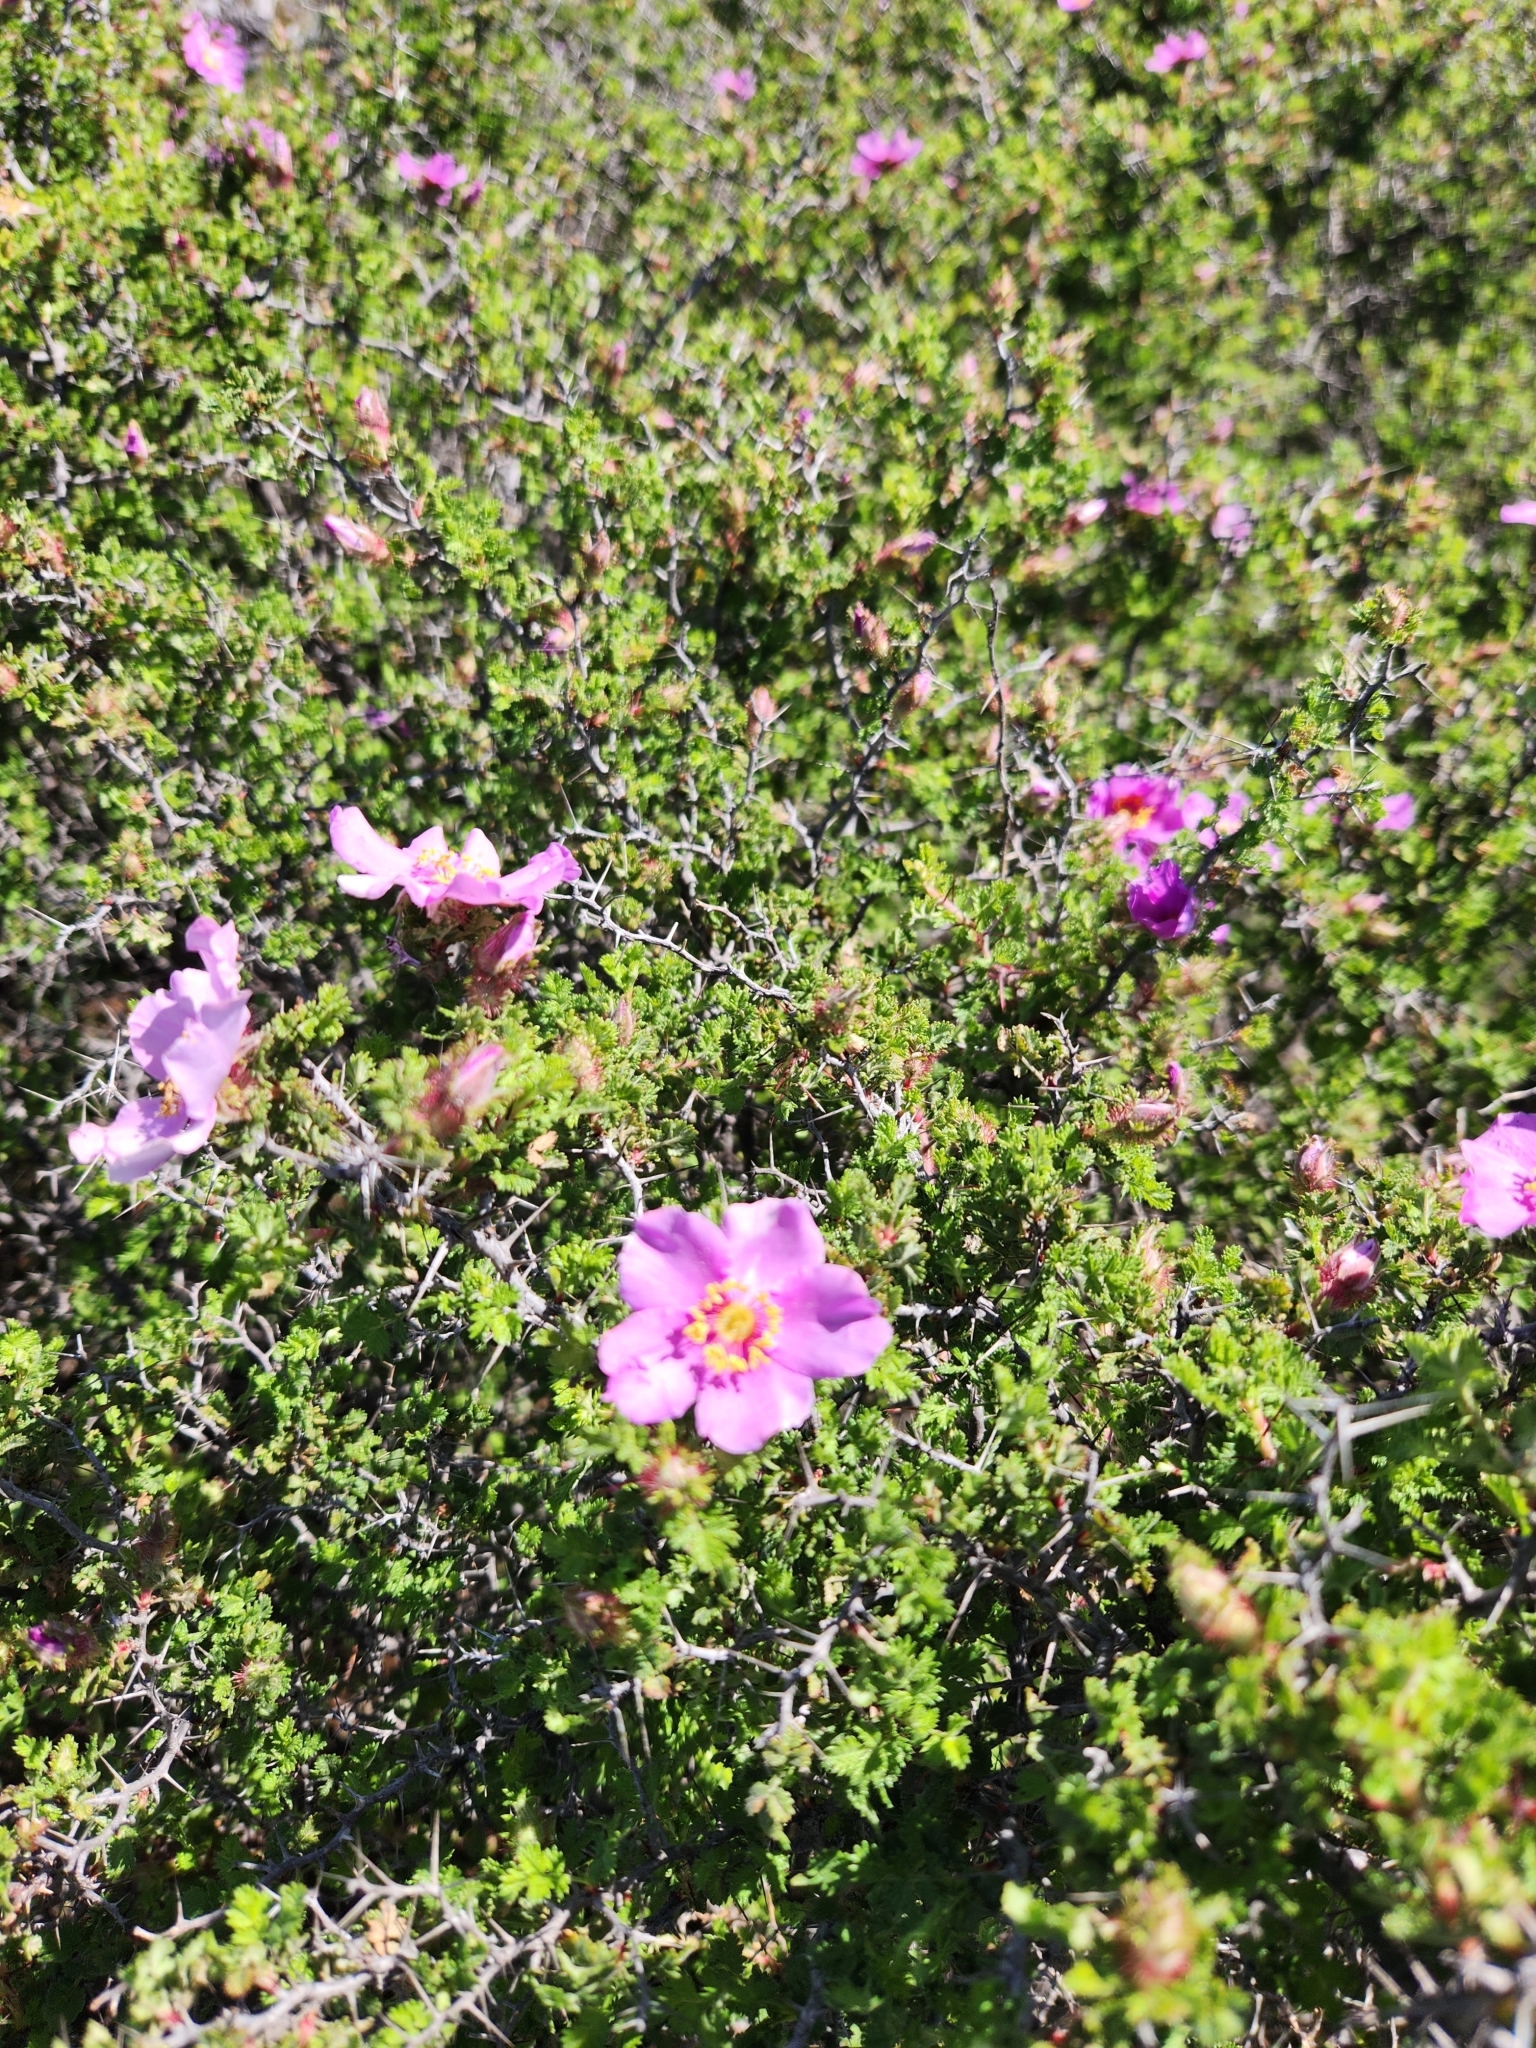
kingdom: Plantae
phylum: Tracheophyta
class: Magnoliopsida
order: Rosales
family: Rosaceae
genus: Rosa
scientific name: Rosa minutifolia
